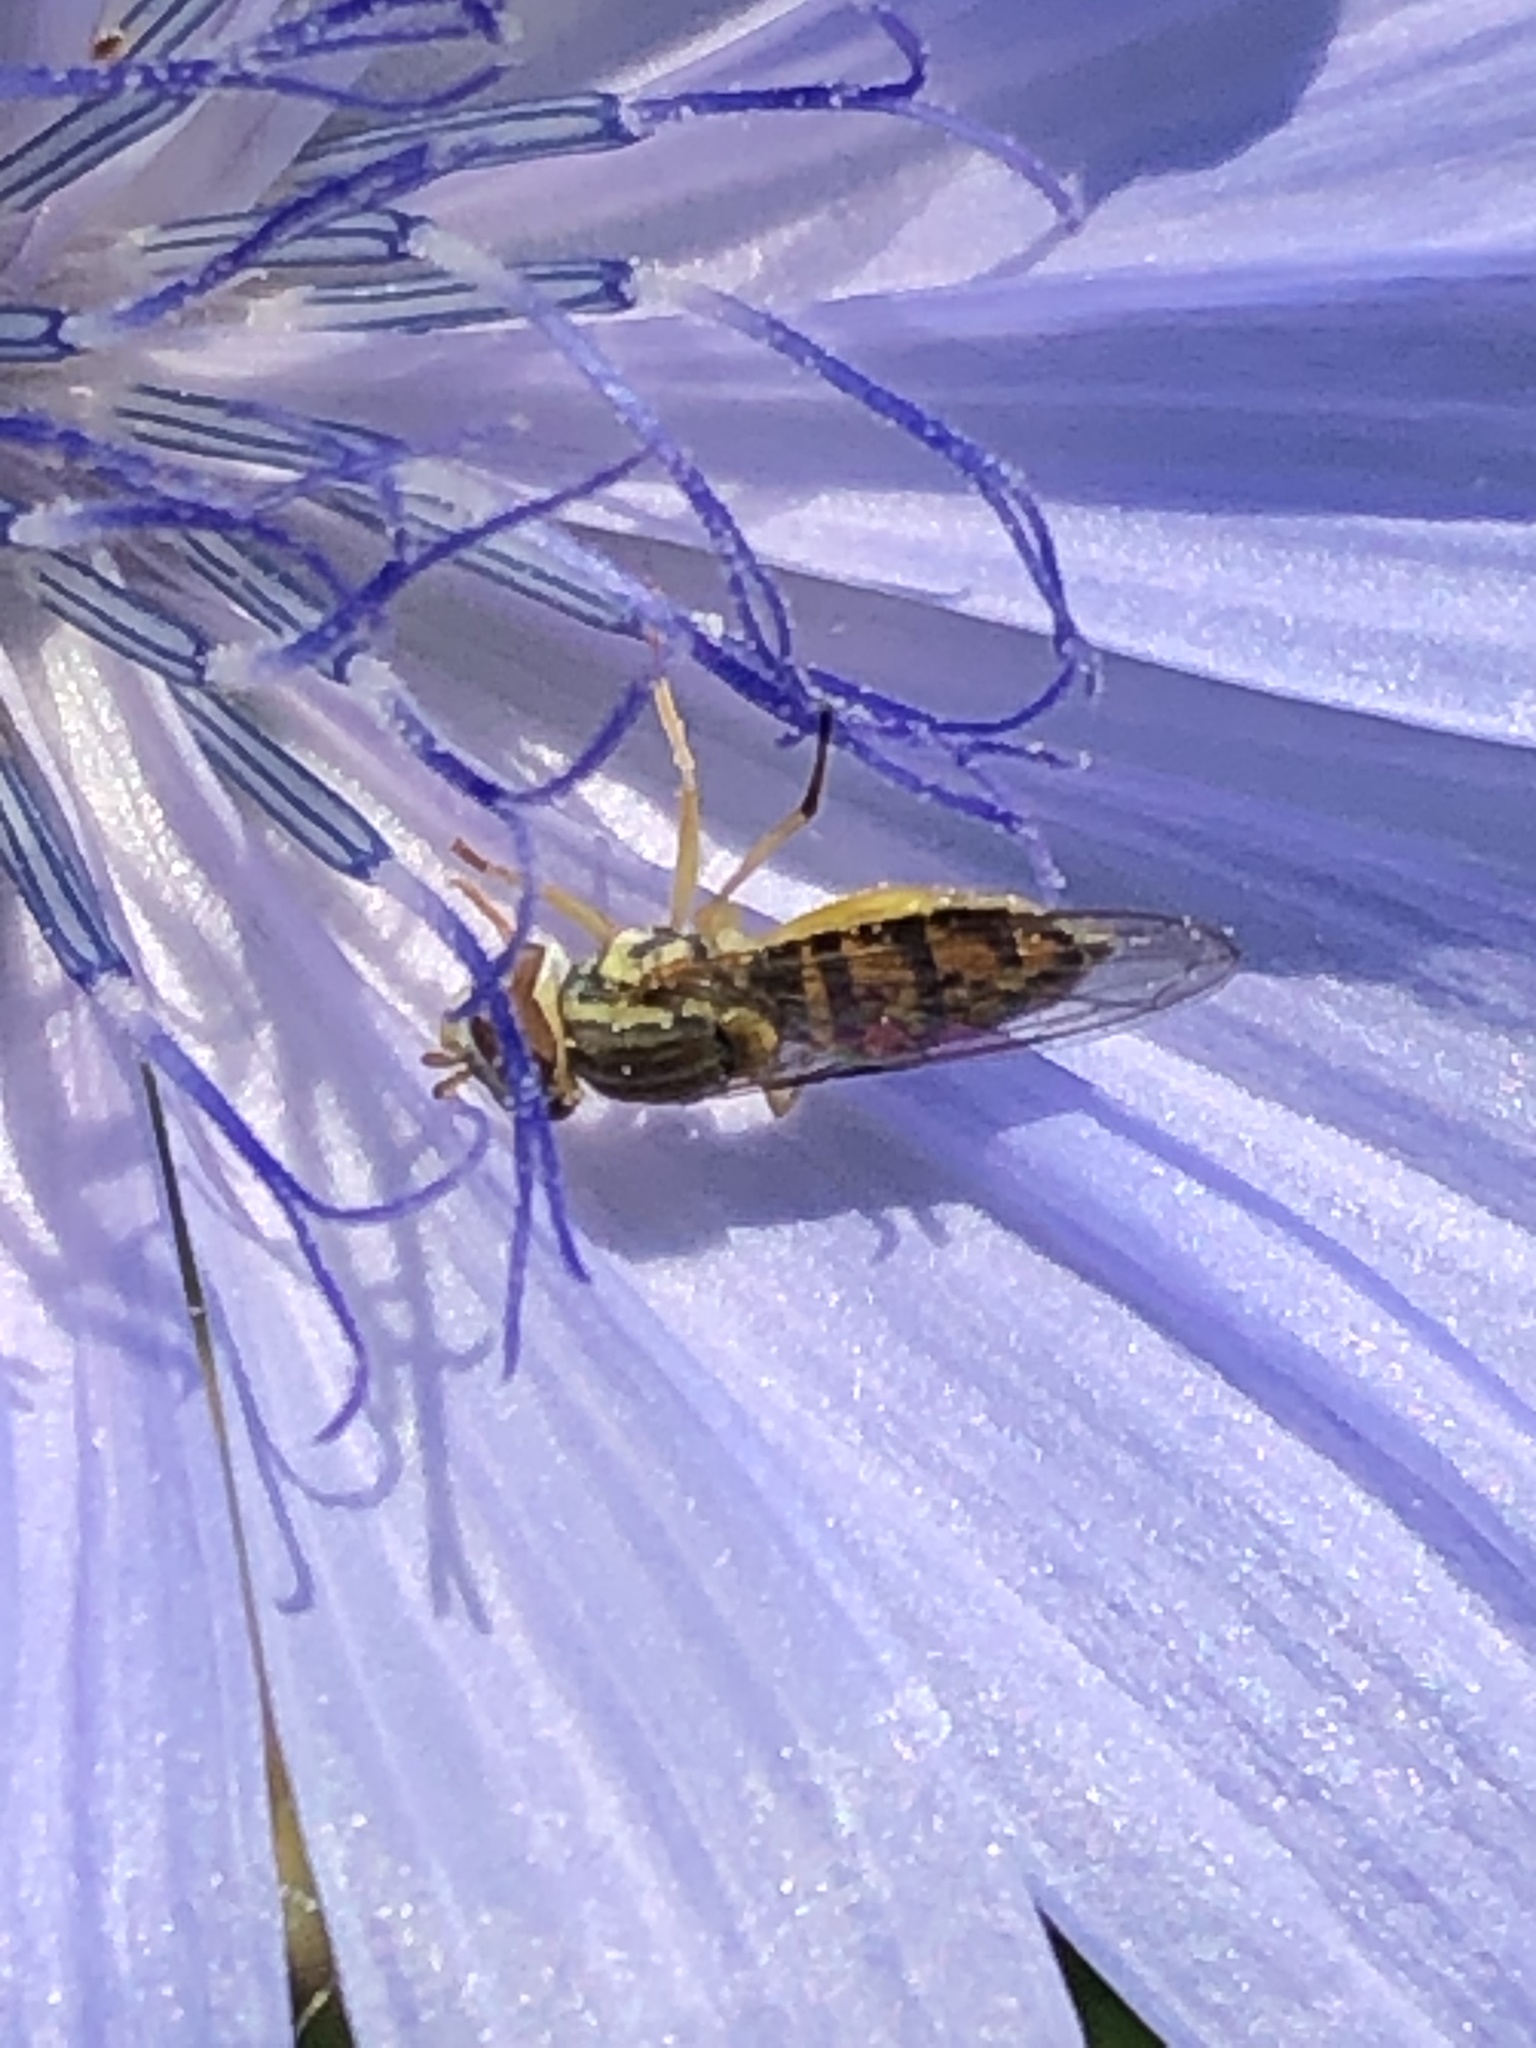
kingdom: Animalia
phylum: Arthropoda
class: Insecta
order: Diptera
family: Syrphidae
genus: Toxomerus
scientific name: Toxomerus marginatus
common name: Syrphid fly
